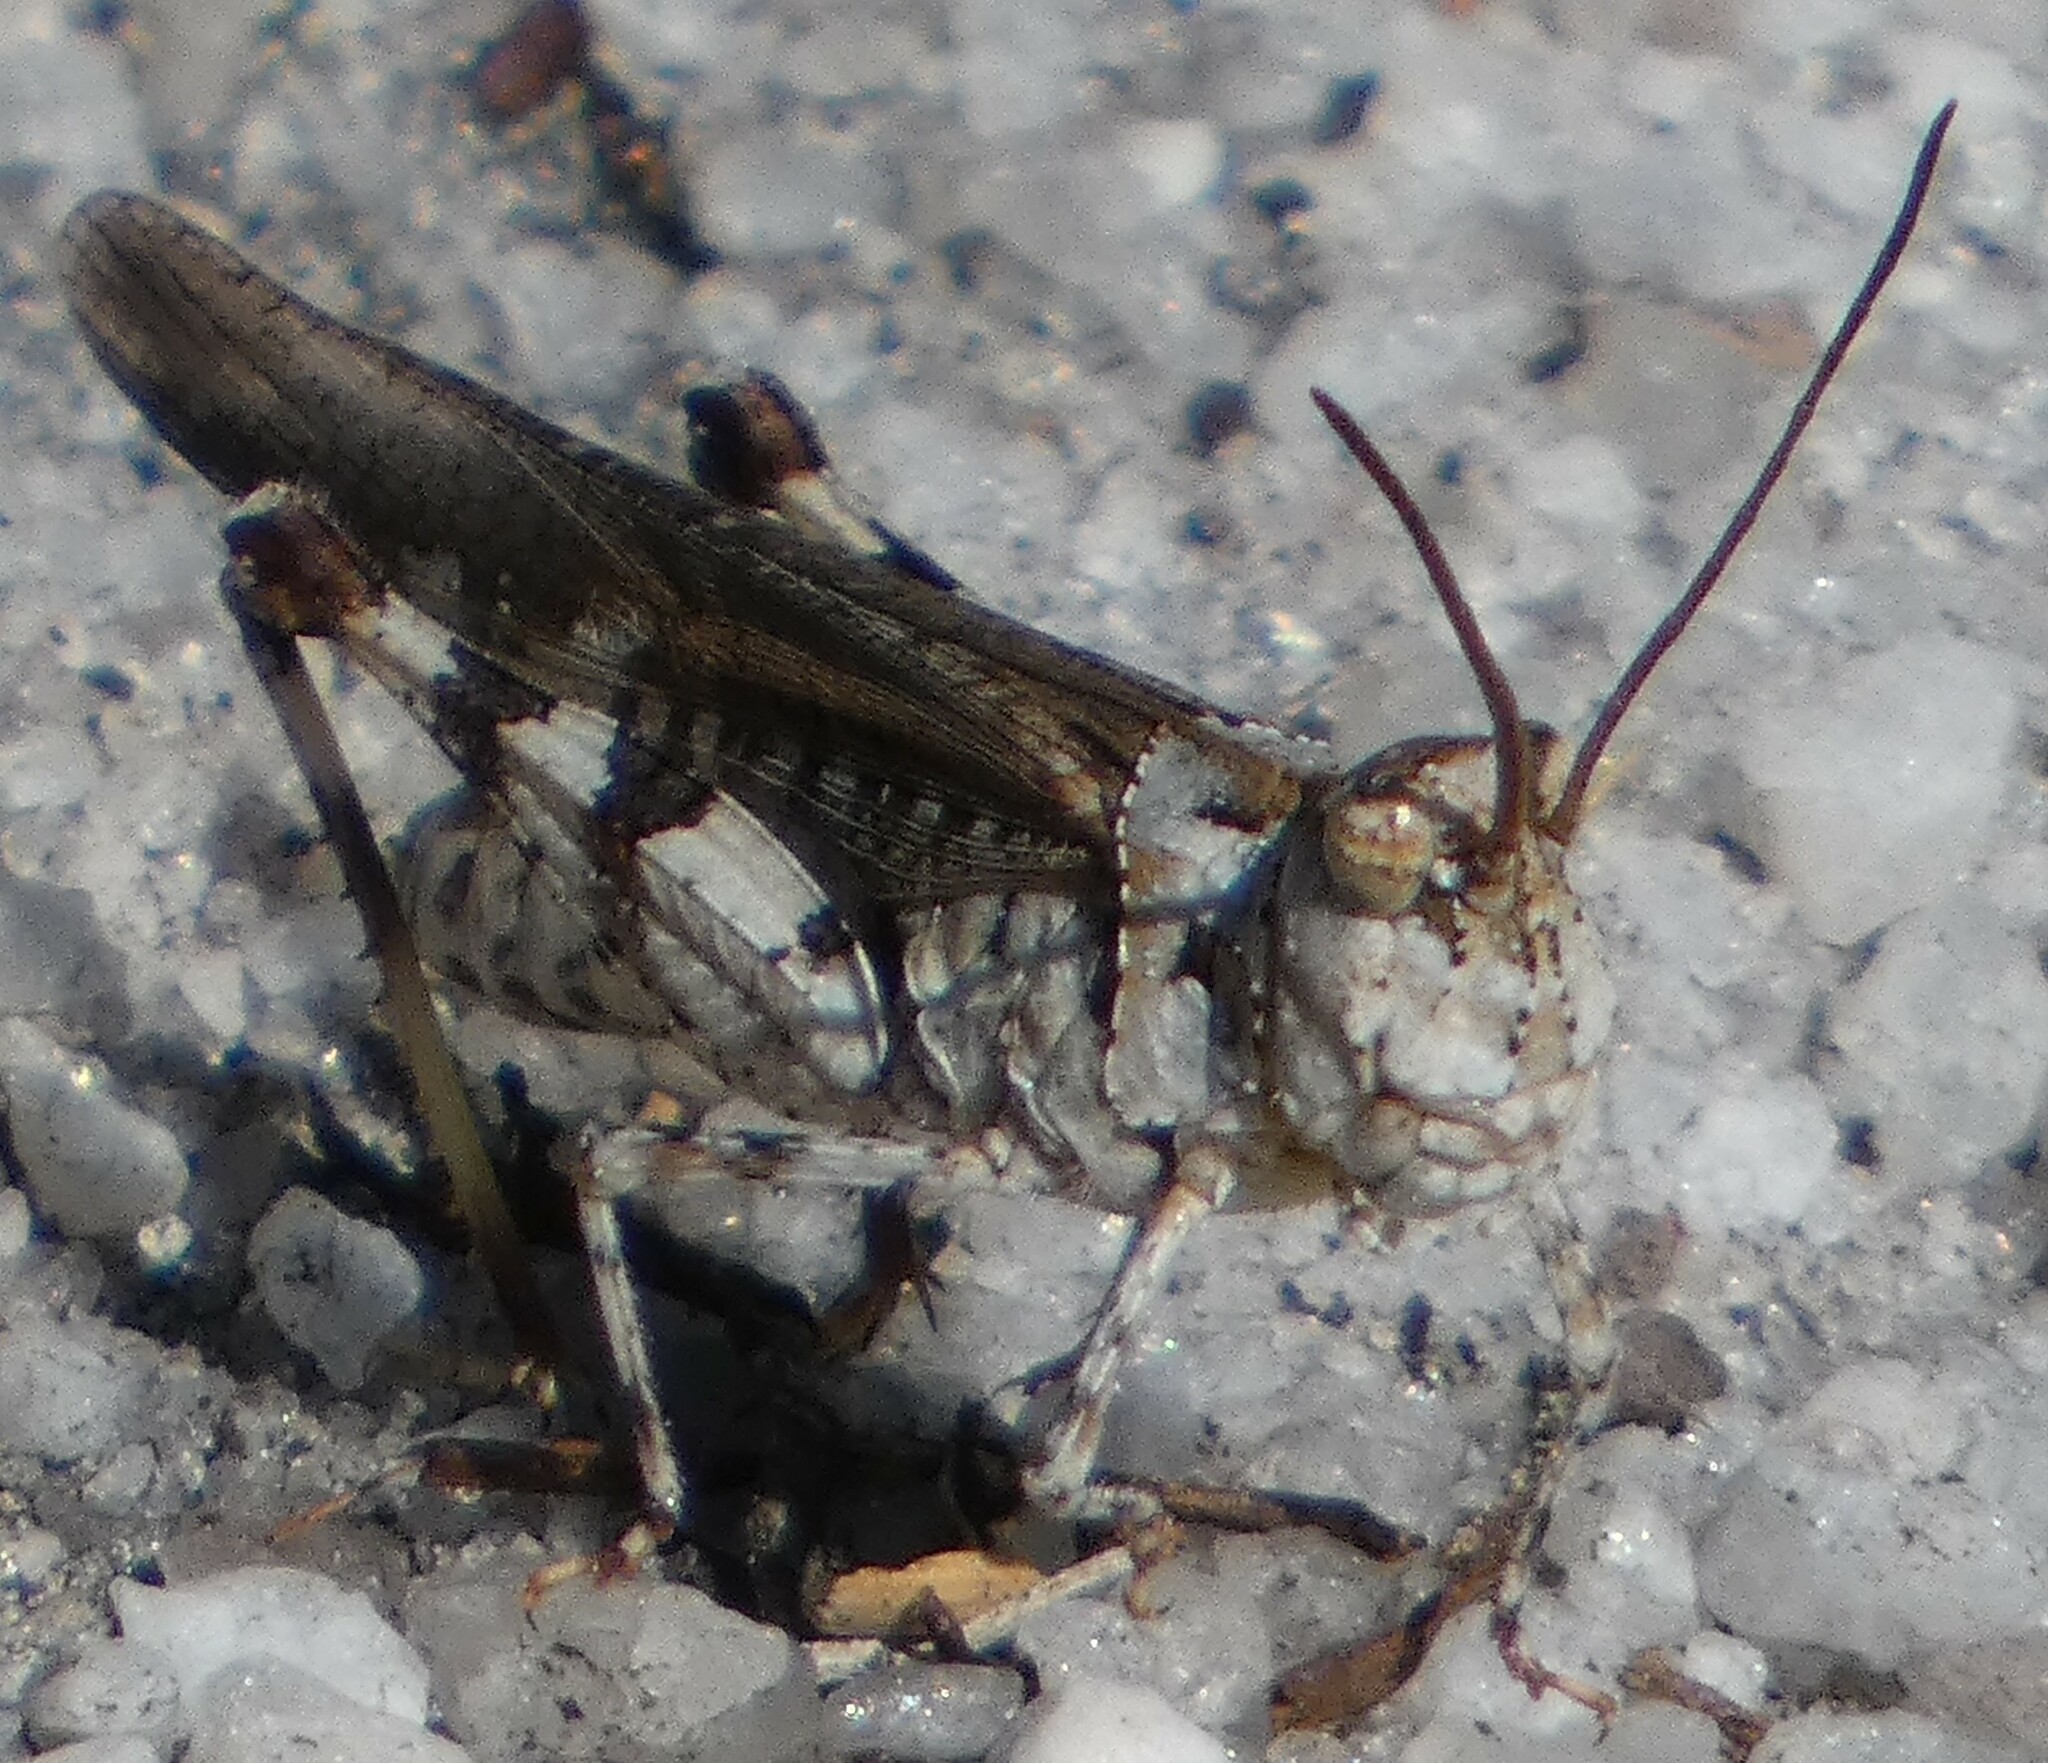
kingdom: Animalia
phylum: Arthropoda
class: Insecta
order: Orthoptera
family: Acrididae
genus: Psinidia
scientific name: Psinidia fenestralis
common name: Long-horned locust
